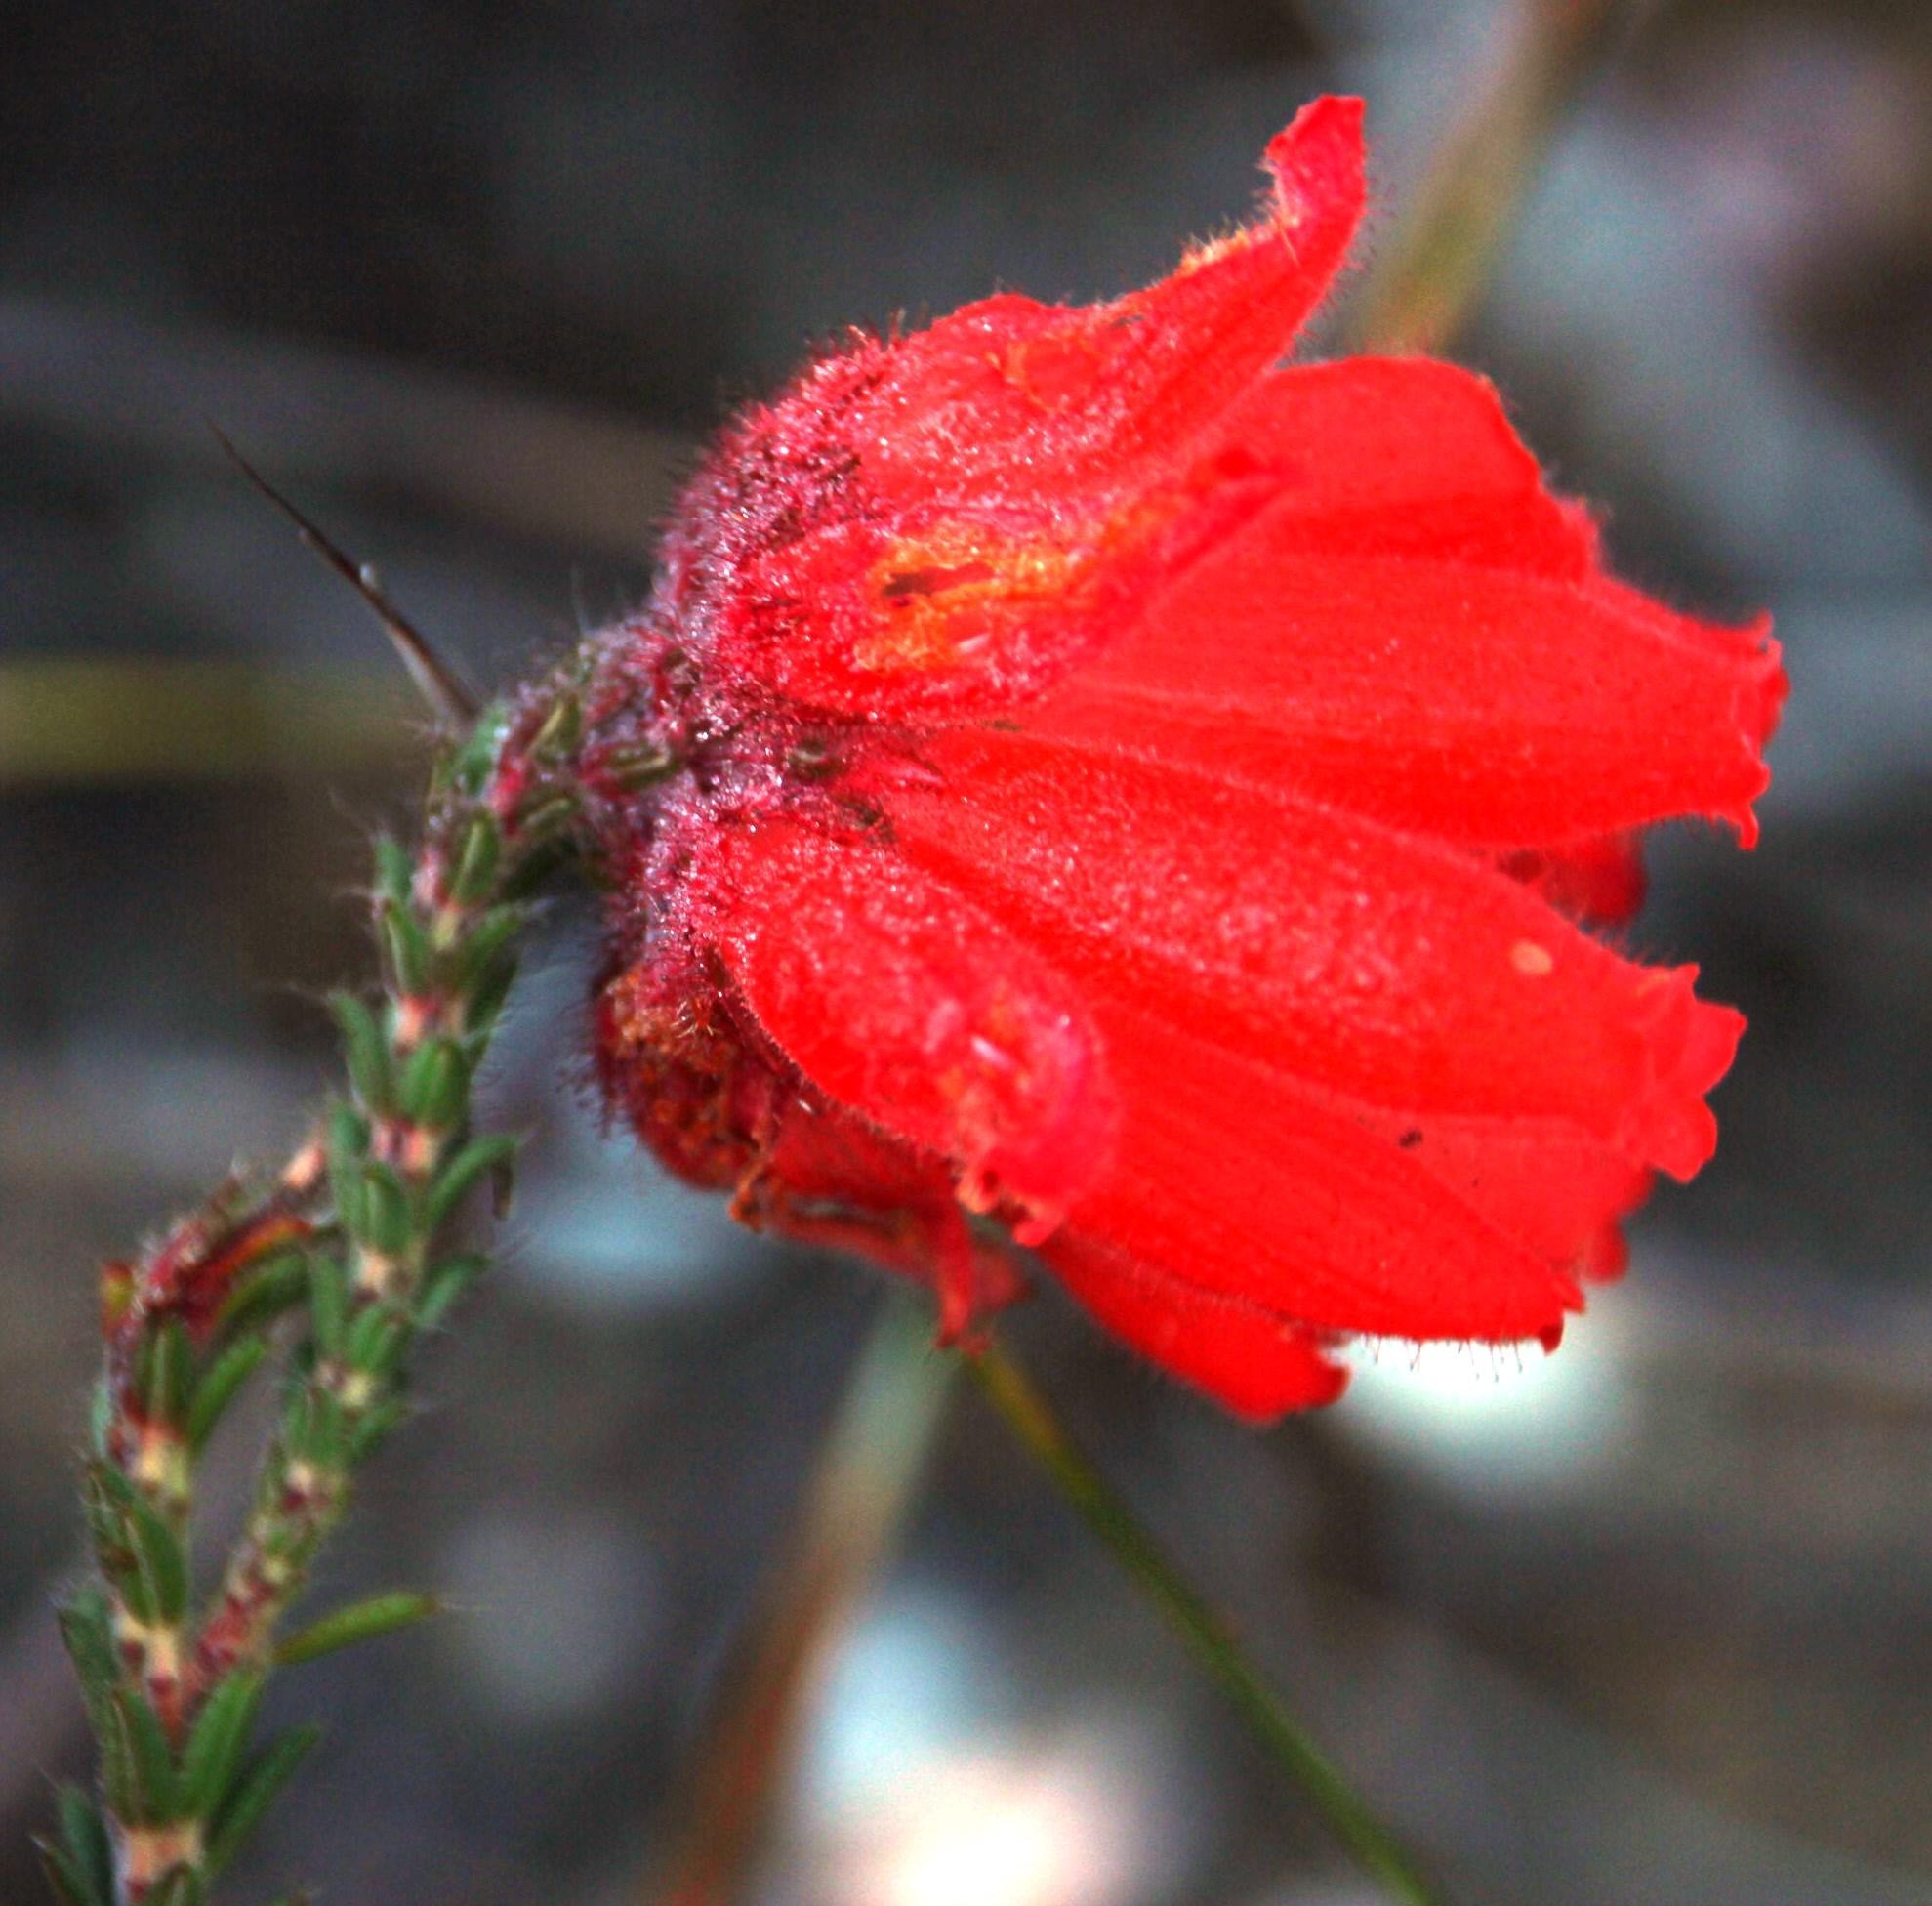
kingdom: Plantae
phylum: Tracheophyta
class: Magnoliopsida
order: Ericales
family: Ericaceae
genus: Erica
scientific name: Erica cerinthoides
